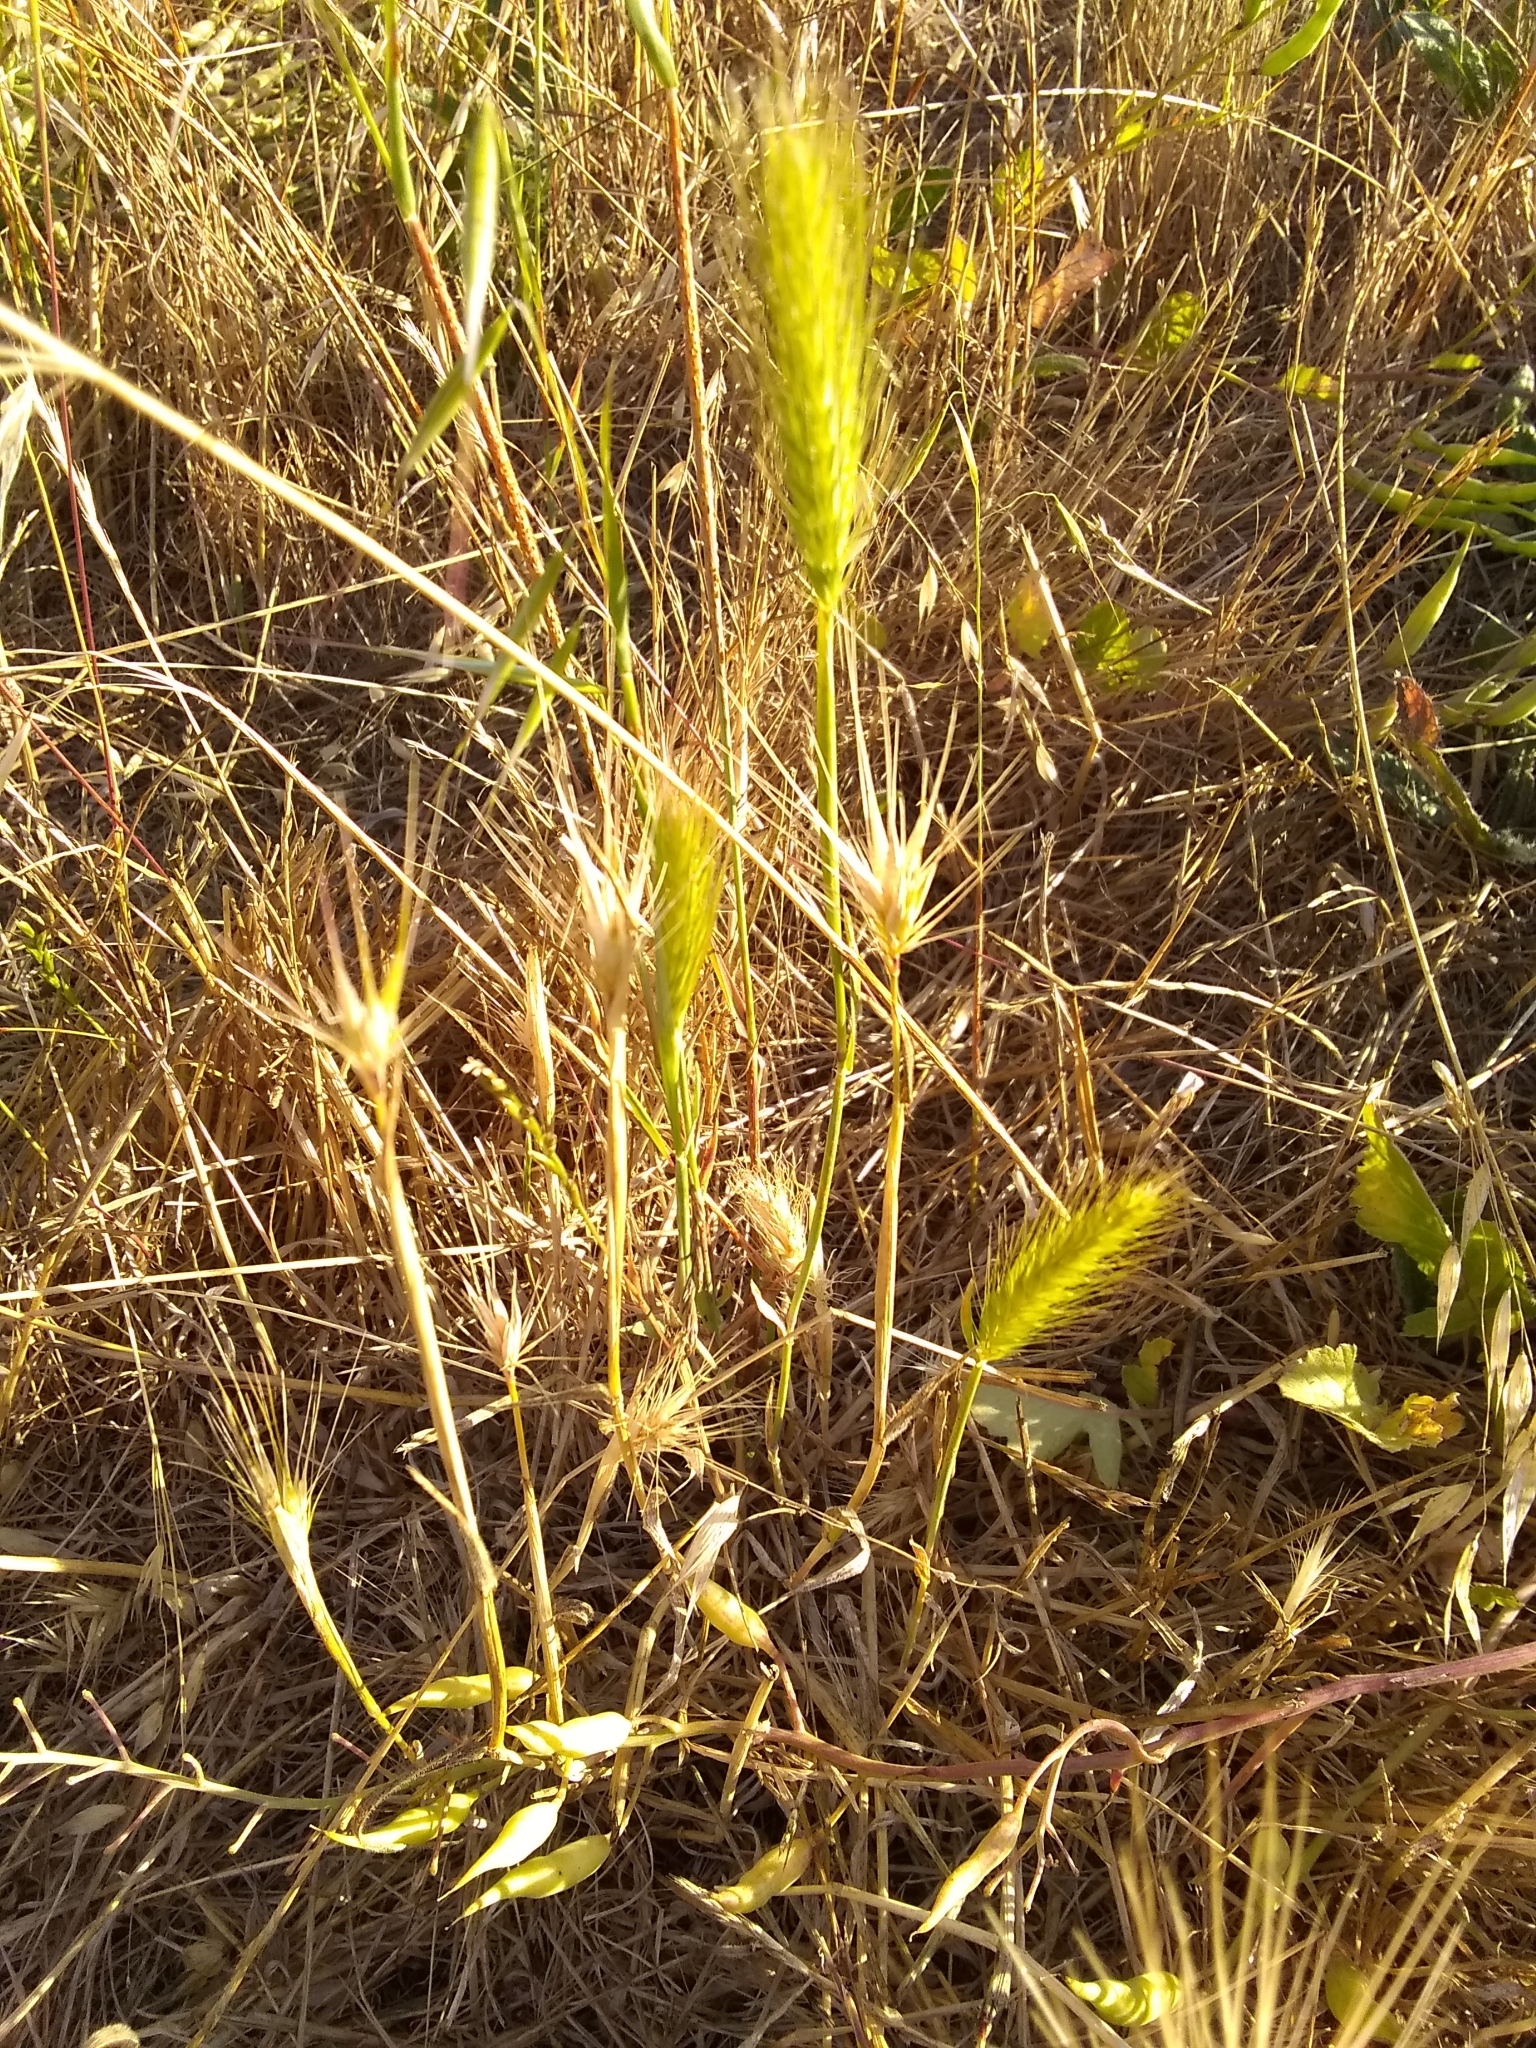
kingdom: Plantae
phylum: Tracheophyta
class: Liliopsida
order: Poales
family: Poaceae
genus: Hordeum
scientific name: Hordeum murinum
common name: Wall barley
